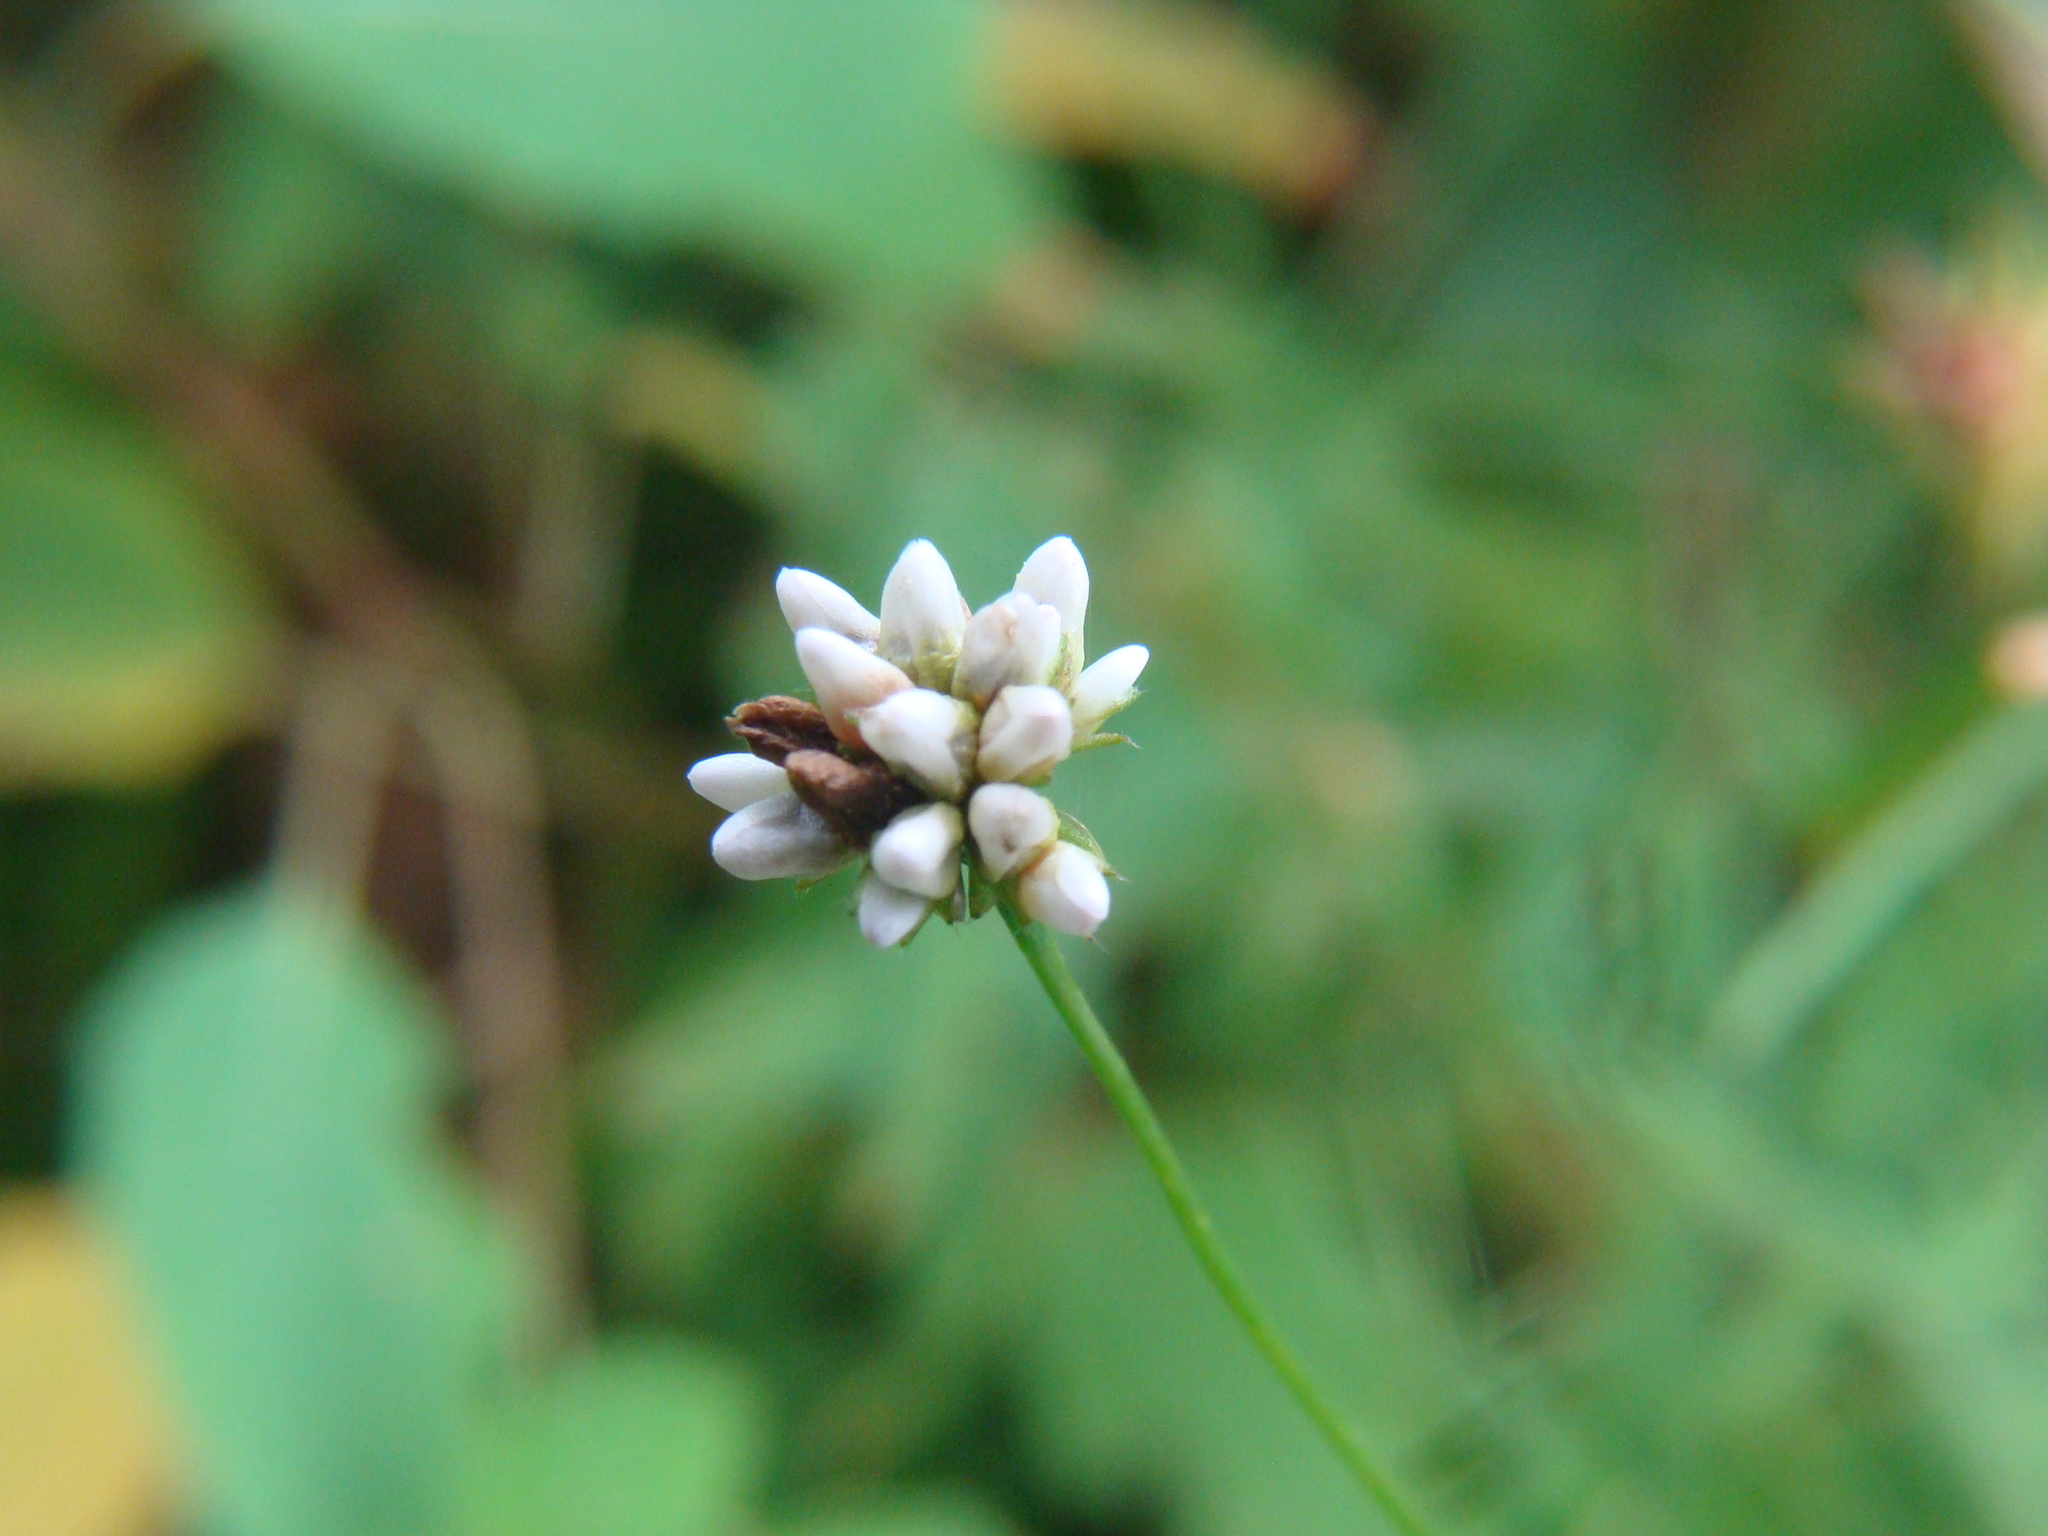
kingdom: Plantae
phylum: Tracheophyta
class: Magnoliopsida
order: Caryophyllales
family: Polygonaceae
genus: Persicaria
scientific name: Persicaria sagittata
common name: American tearthumb
